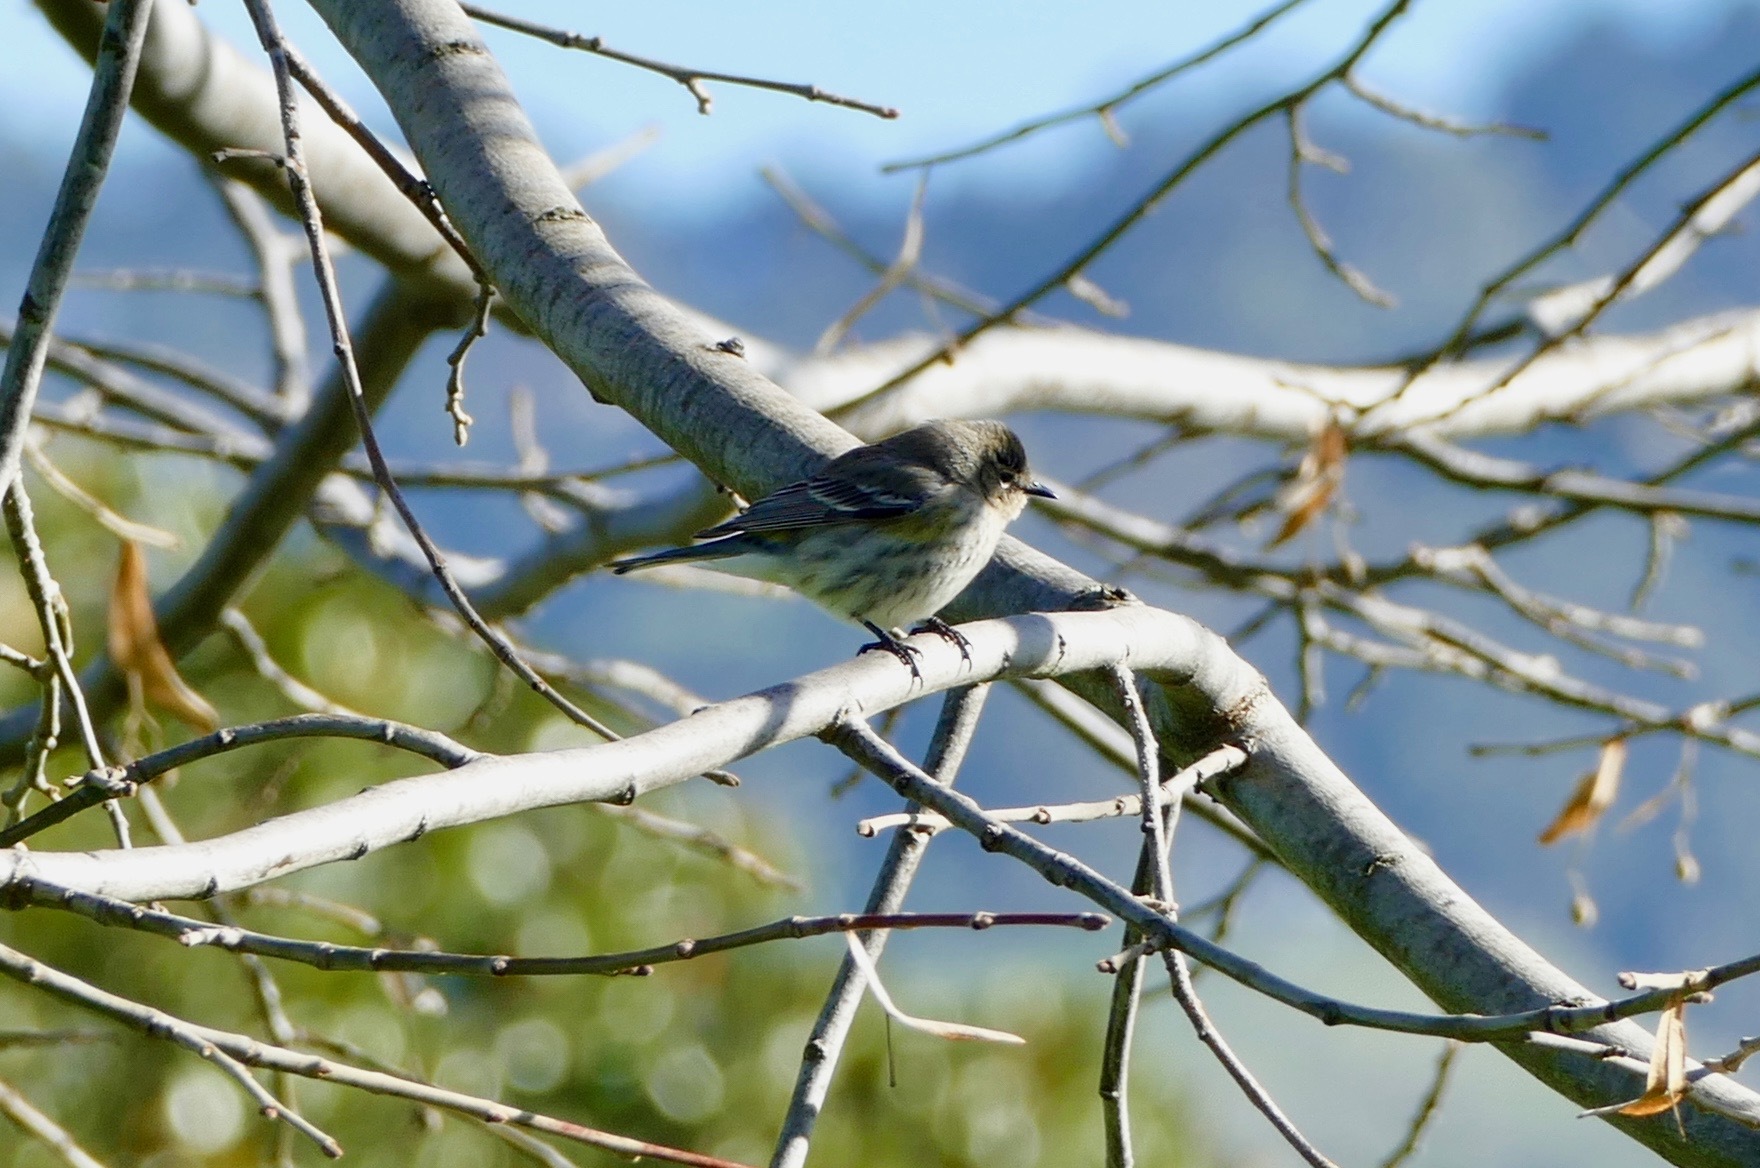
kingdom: Animalia
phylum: Chordata
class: Aves
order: Passeriformes
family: Parulidae
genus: Setophaga
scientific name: Setophaga coronata
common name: Myrtle warbler
